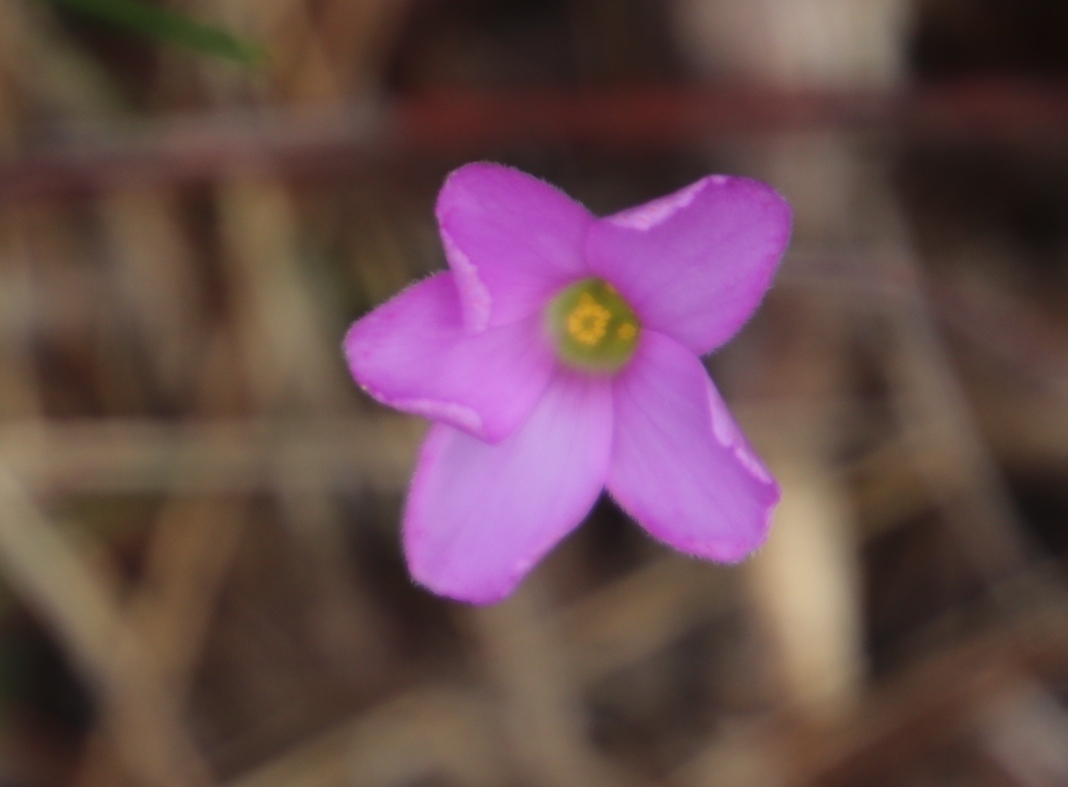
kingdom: Plantae
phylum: Tracheophyta
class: Magnoliopsida
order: Oxalidales
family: Oxalidaceae
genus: Oxalis
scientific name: Oxalis truncatula
